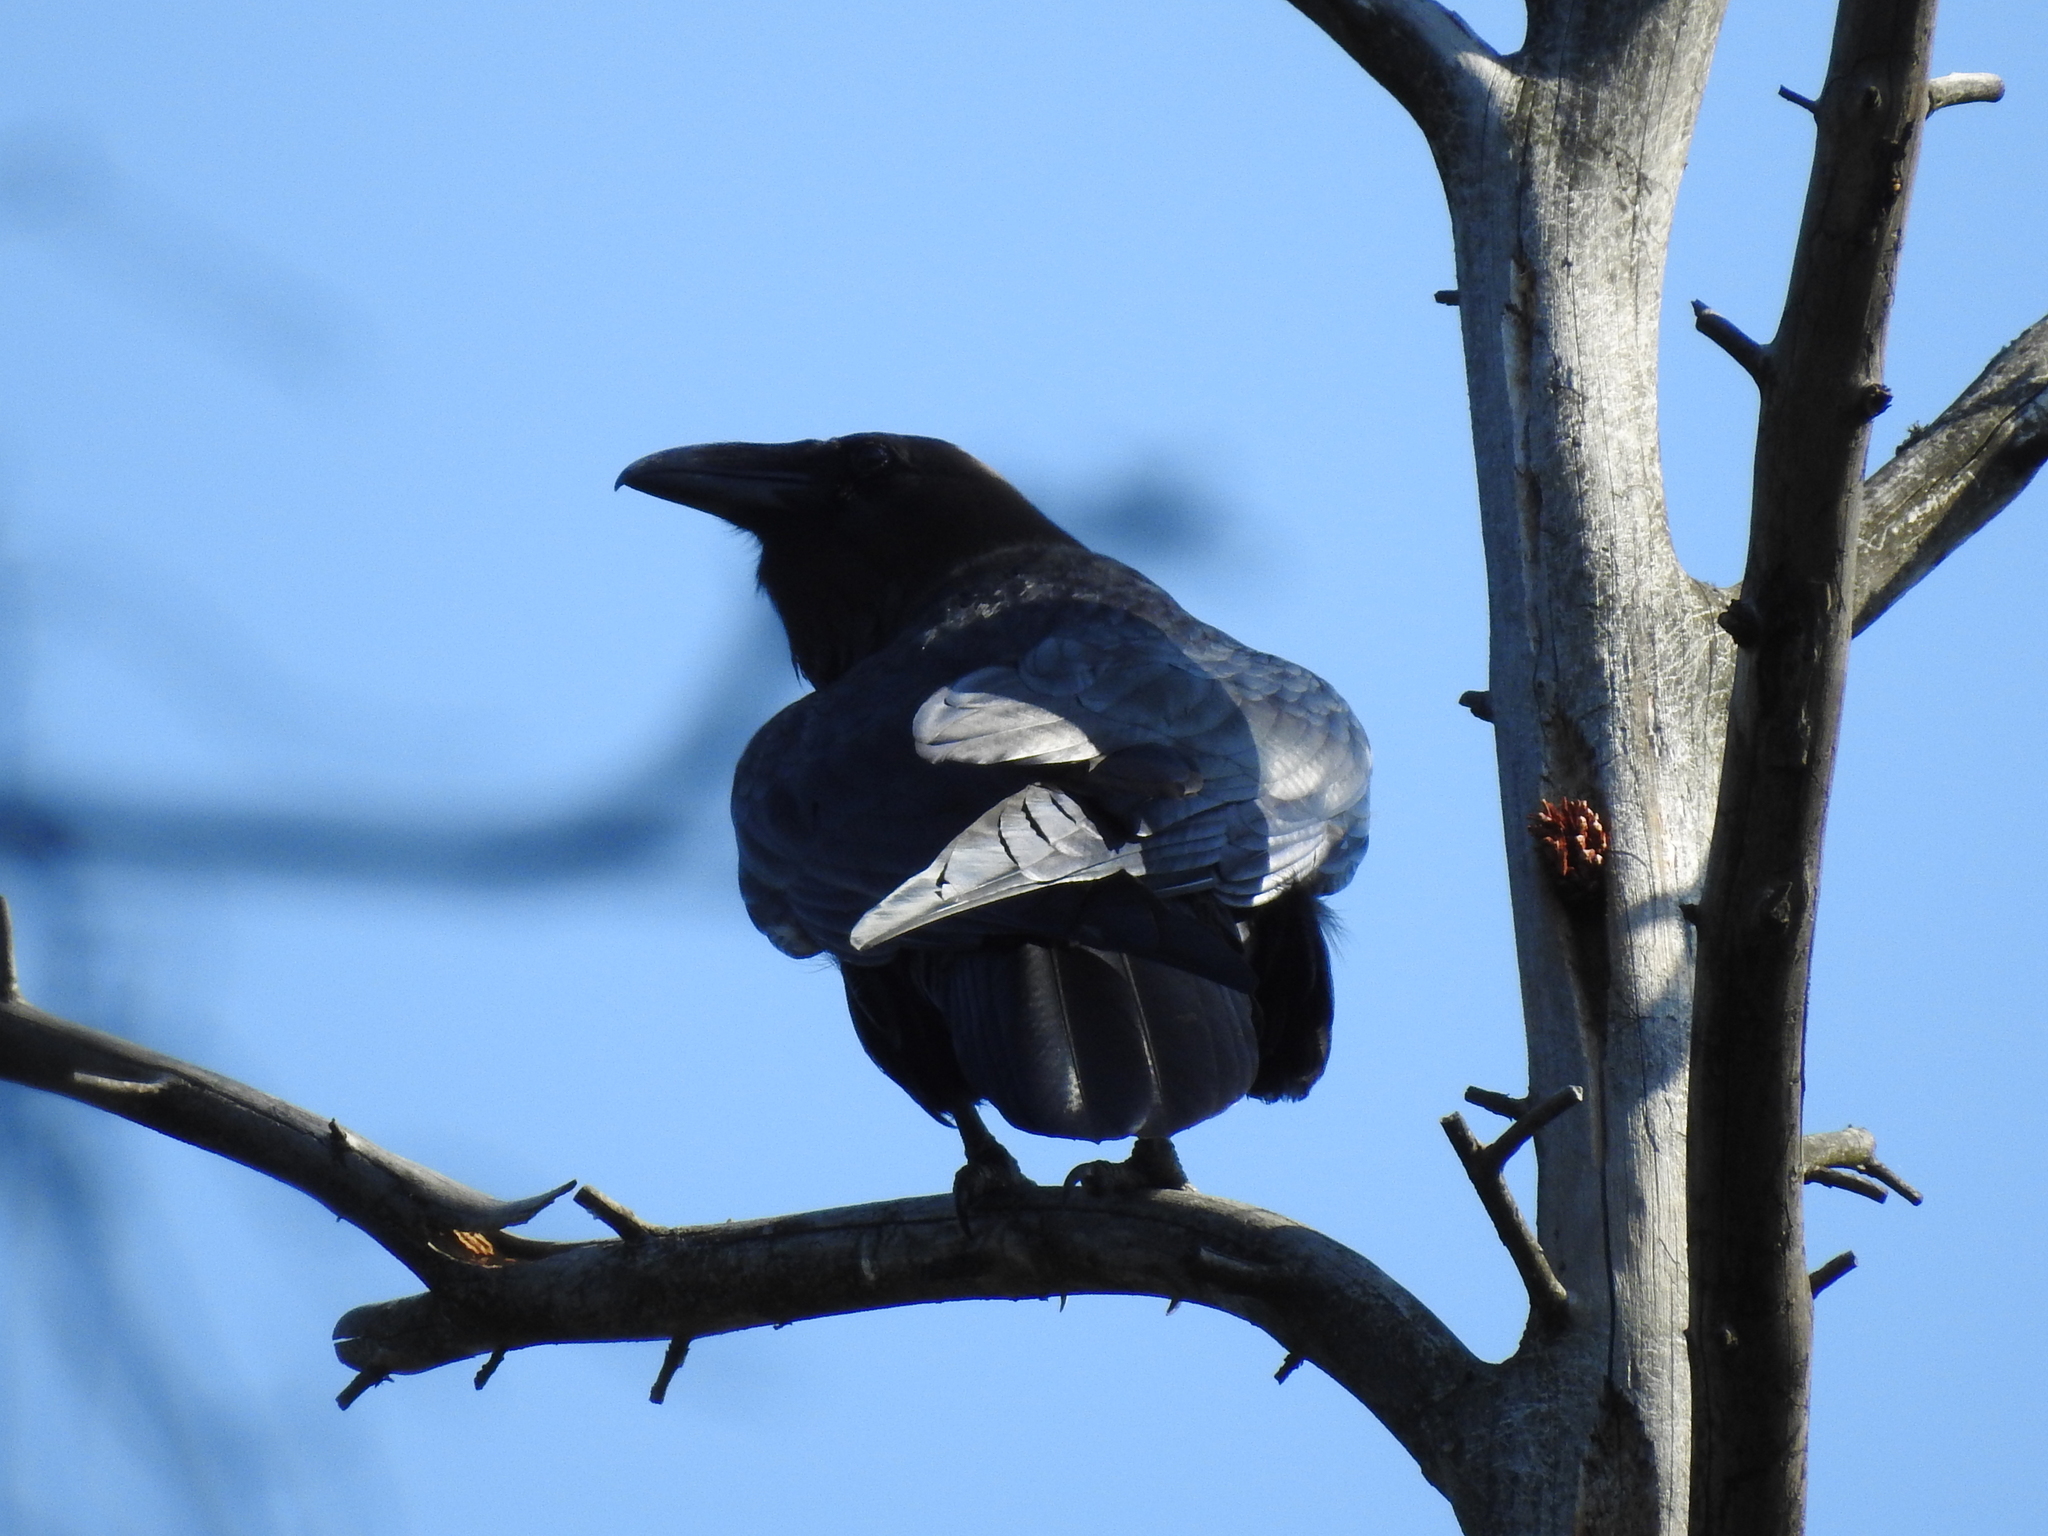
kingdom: Animalia
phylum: Chordata
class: Aves
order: Passeriformes
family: Corvidae
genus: Corvus
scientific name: Corvus corax
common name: Common raven
